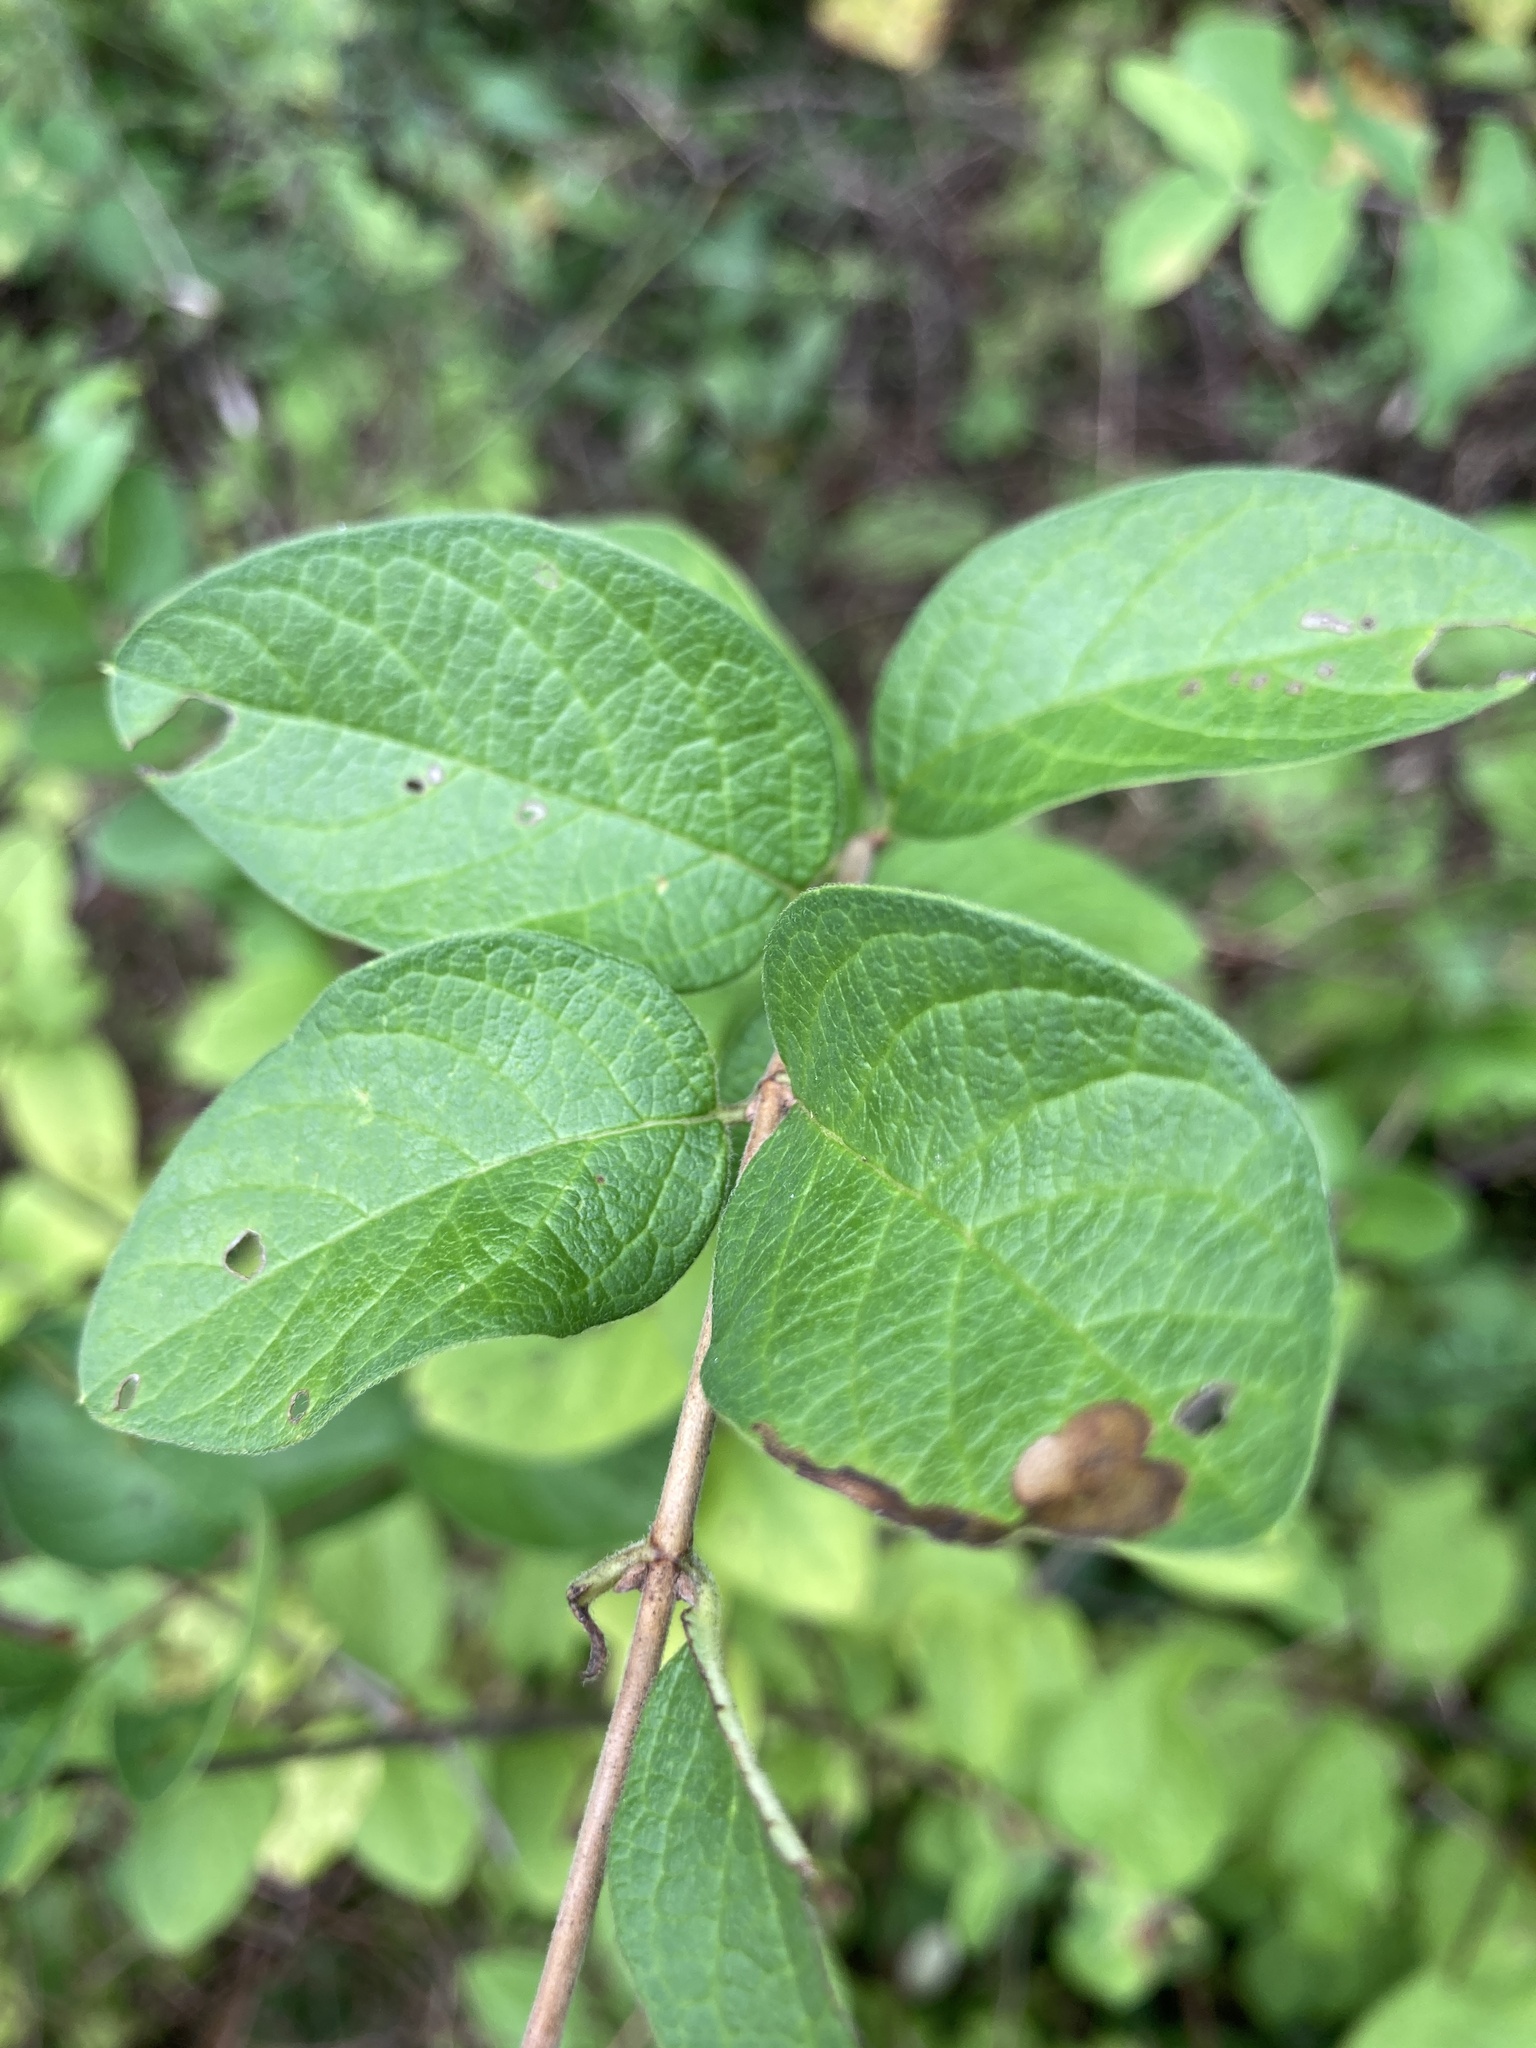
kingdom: Plantae
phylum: Tracheophyta
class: Magnoliopsida
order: Dipsacales
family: Caprifoliaceae
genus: Symphoricarpos
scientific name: Symphoricarpos albus
